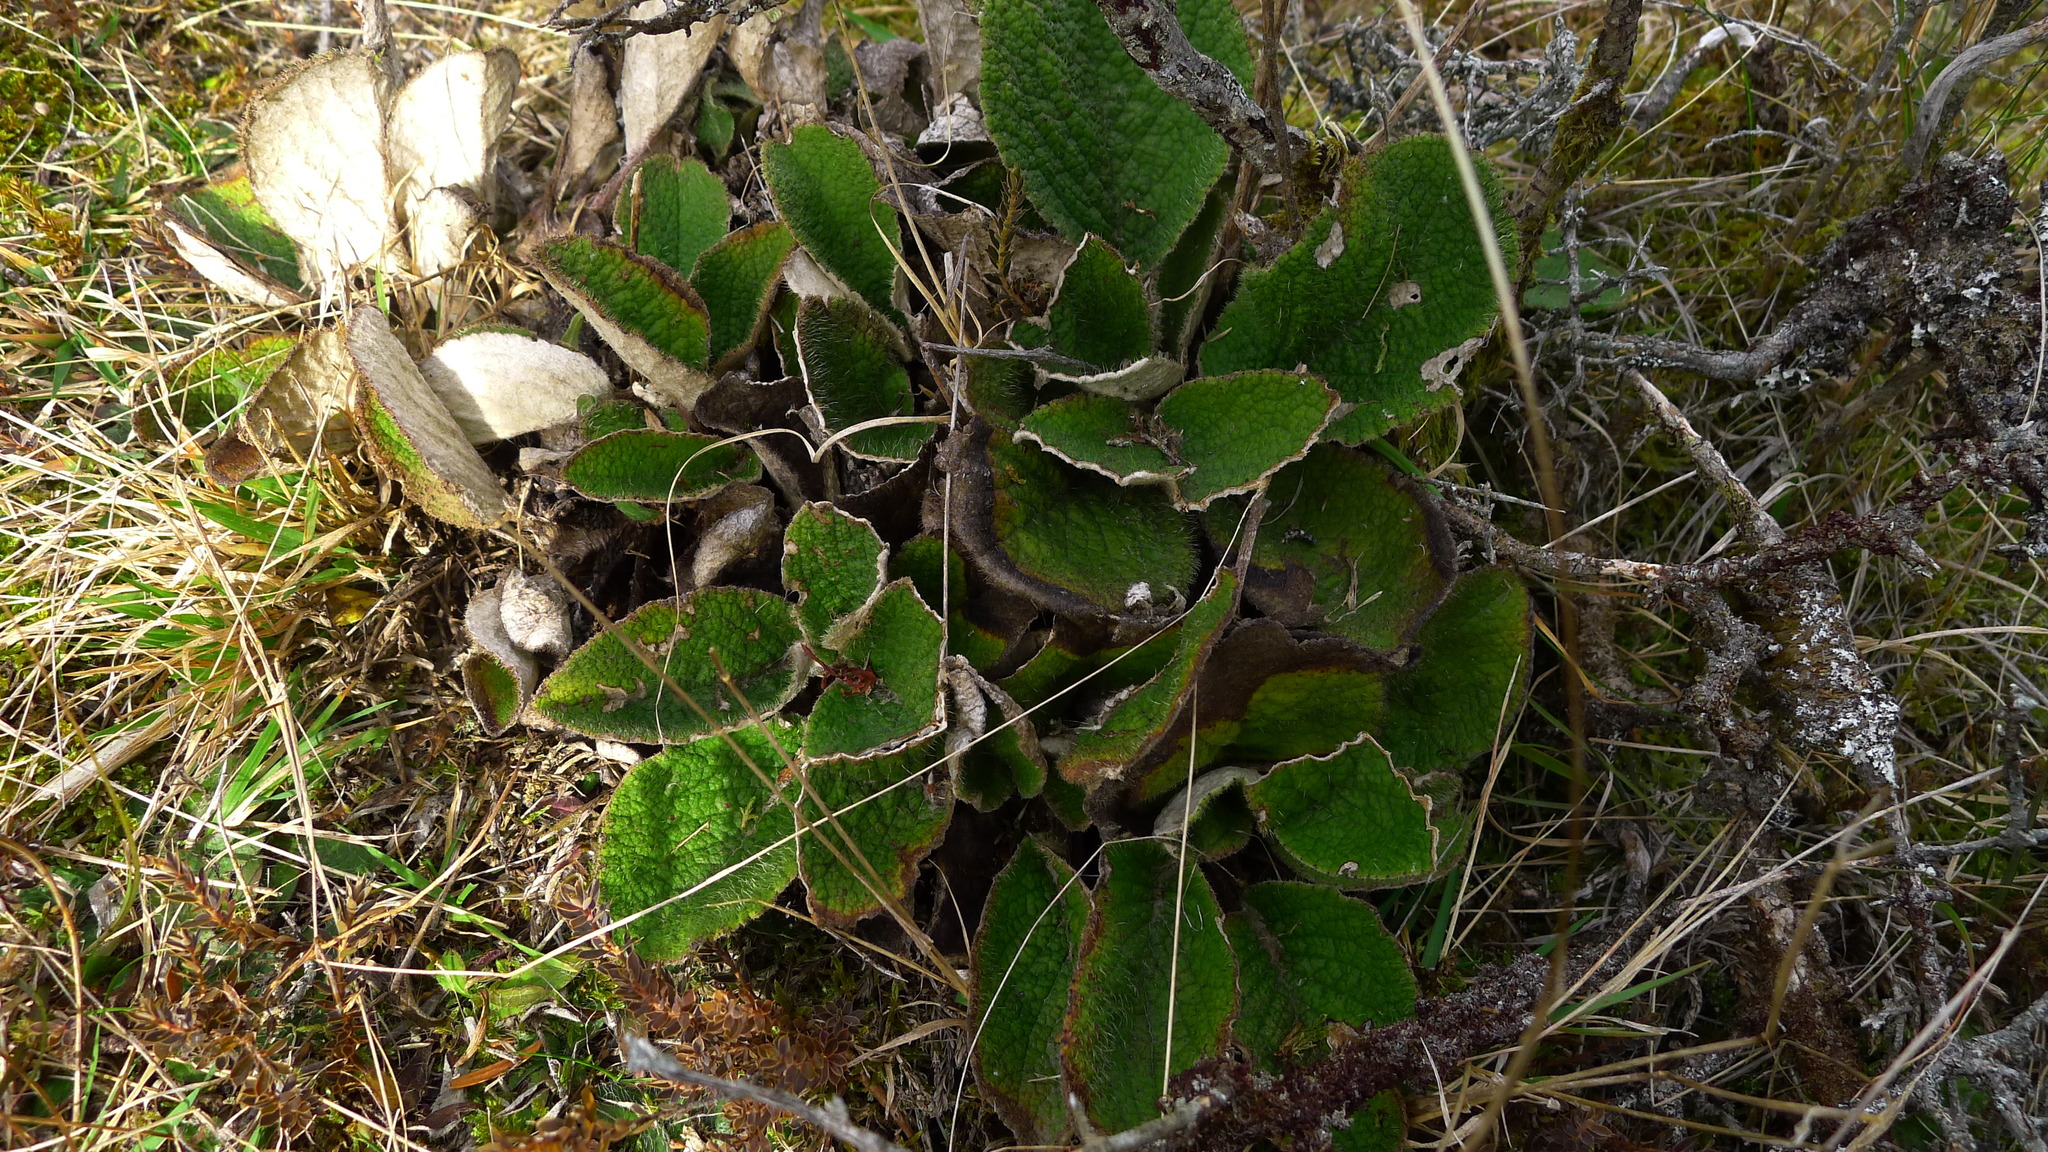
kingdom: Plantae
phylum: Tracheophyta
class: Magnoliopsida
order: Asterales
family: Asteraceae
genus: Brachyglottis
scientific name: Brachyglottis lagopus
